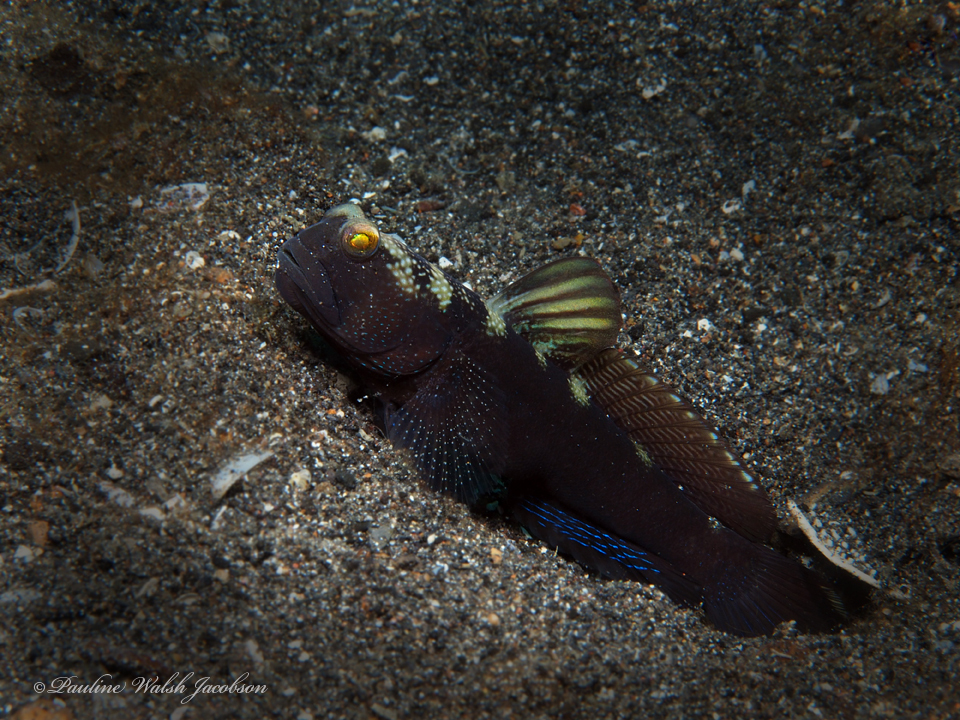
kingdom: Animalia
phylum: Chordata
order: Perciformes
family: Gobiidae
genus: Cryptocentrus
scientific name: Cryptocentrus fasciatus
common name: Barred prawn-goby
